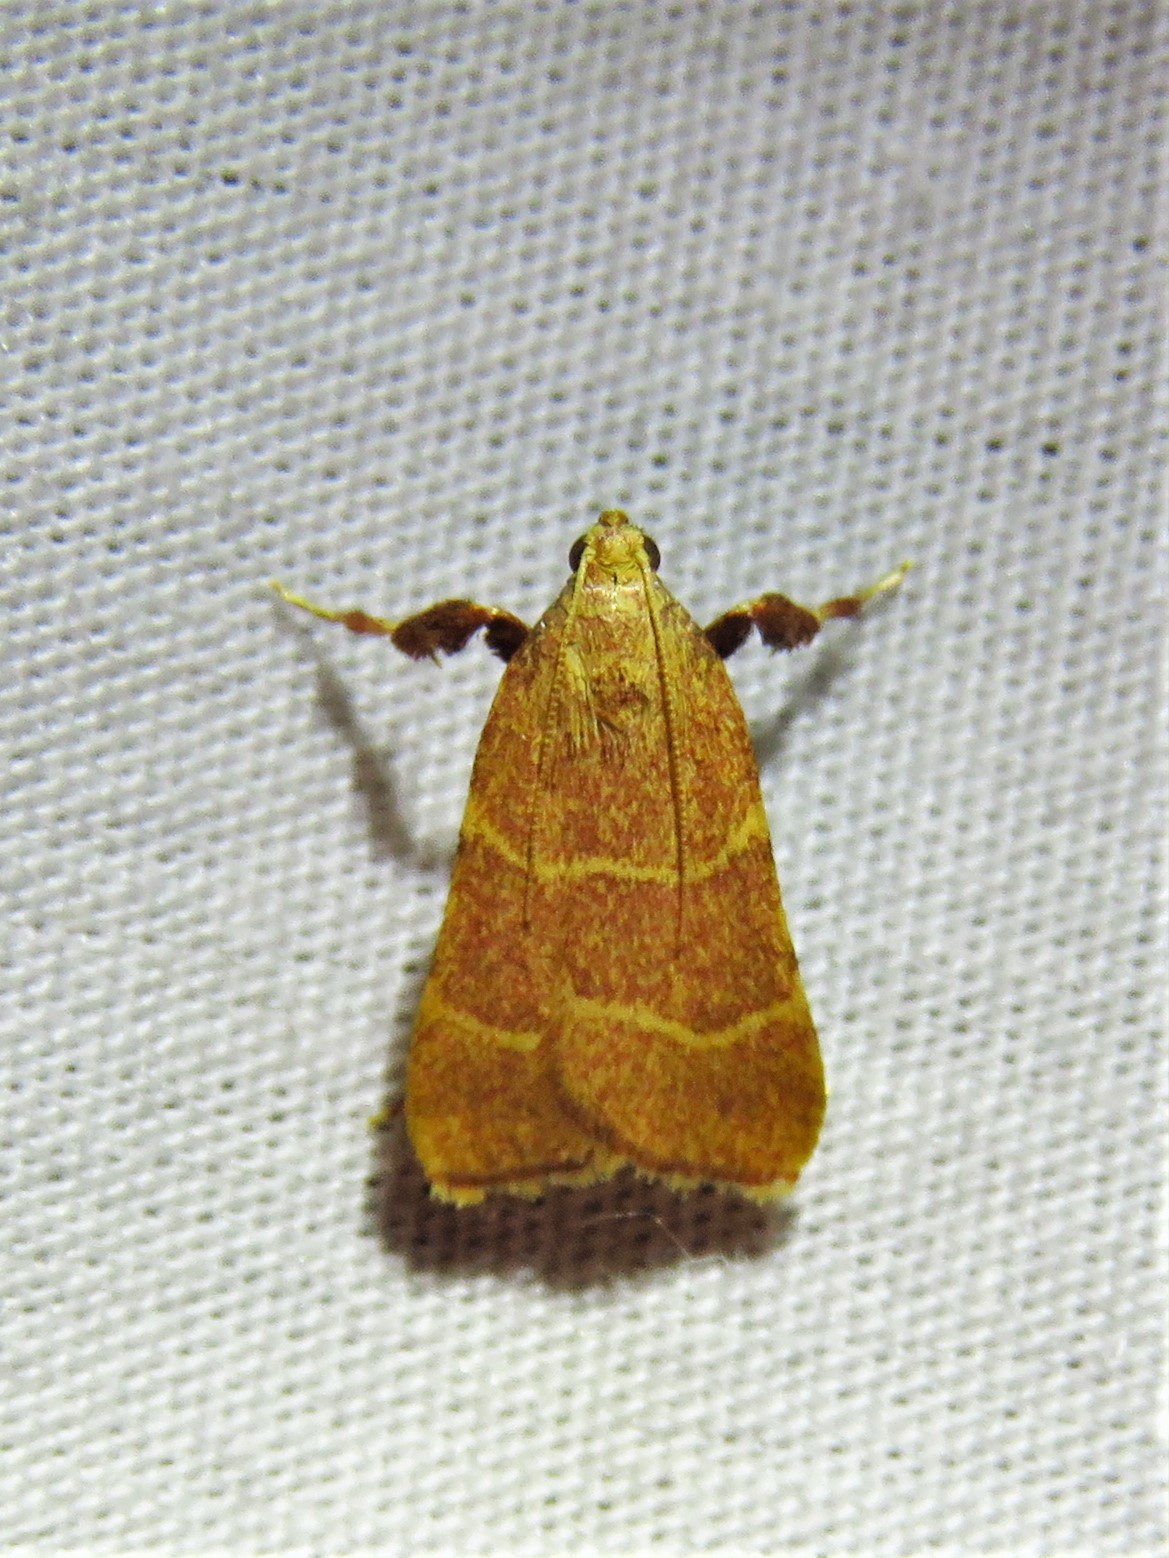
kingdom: Animalia
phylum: Arthropoda
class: Insecta
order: Lepidoptera
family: Pyralidae
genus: Parachma
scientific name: Parachma ochracealis
